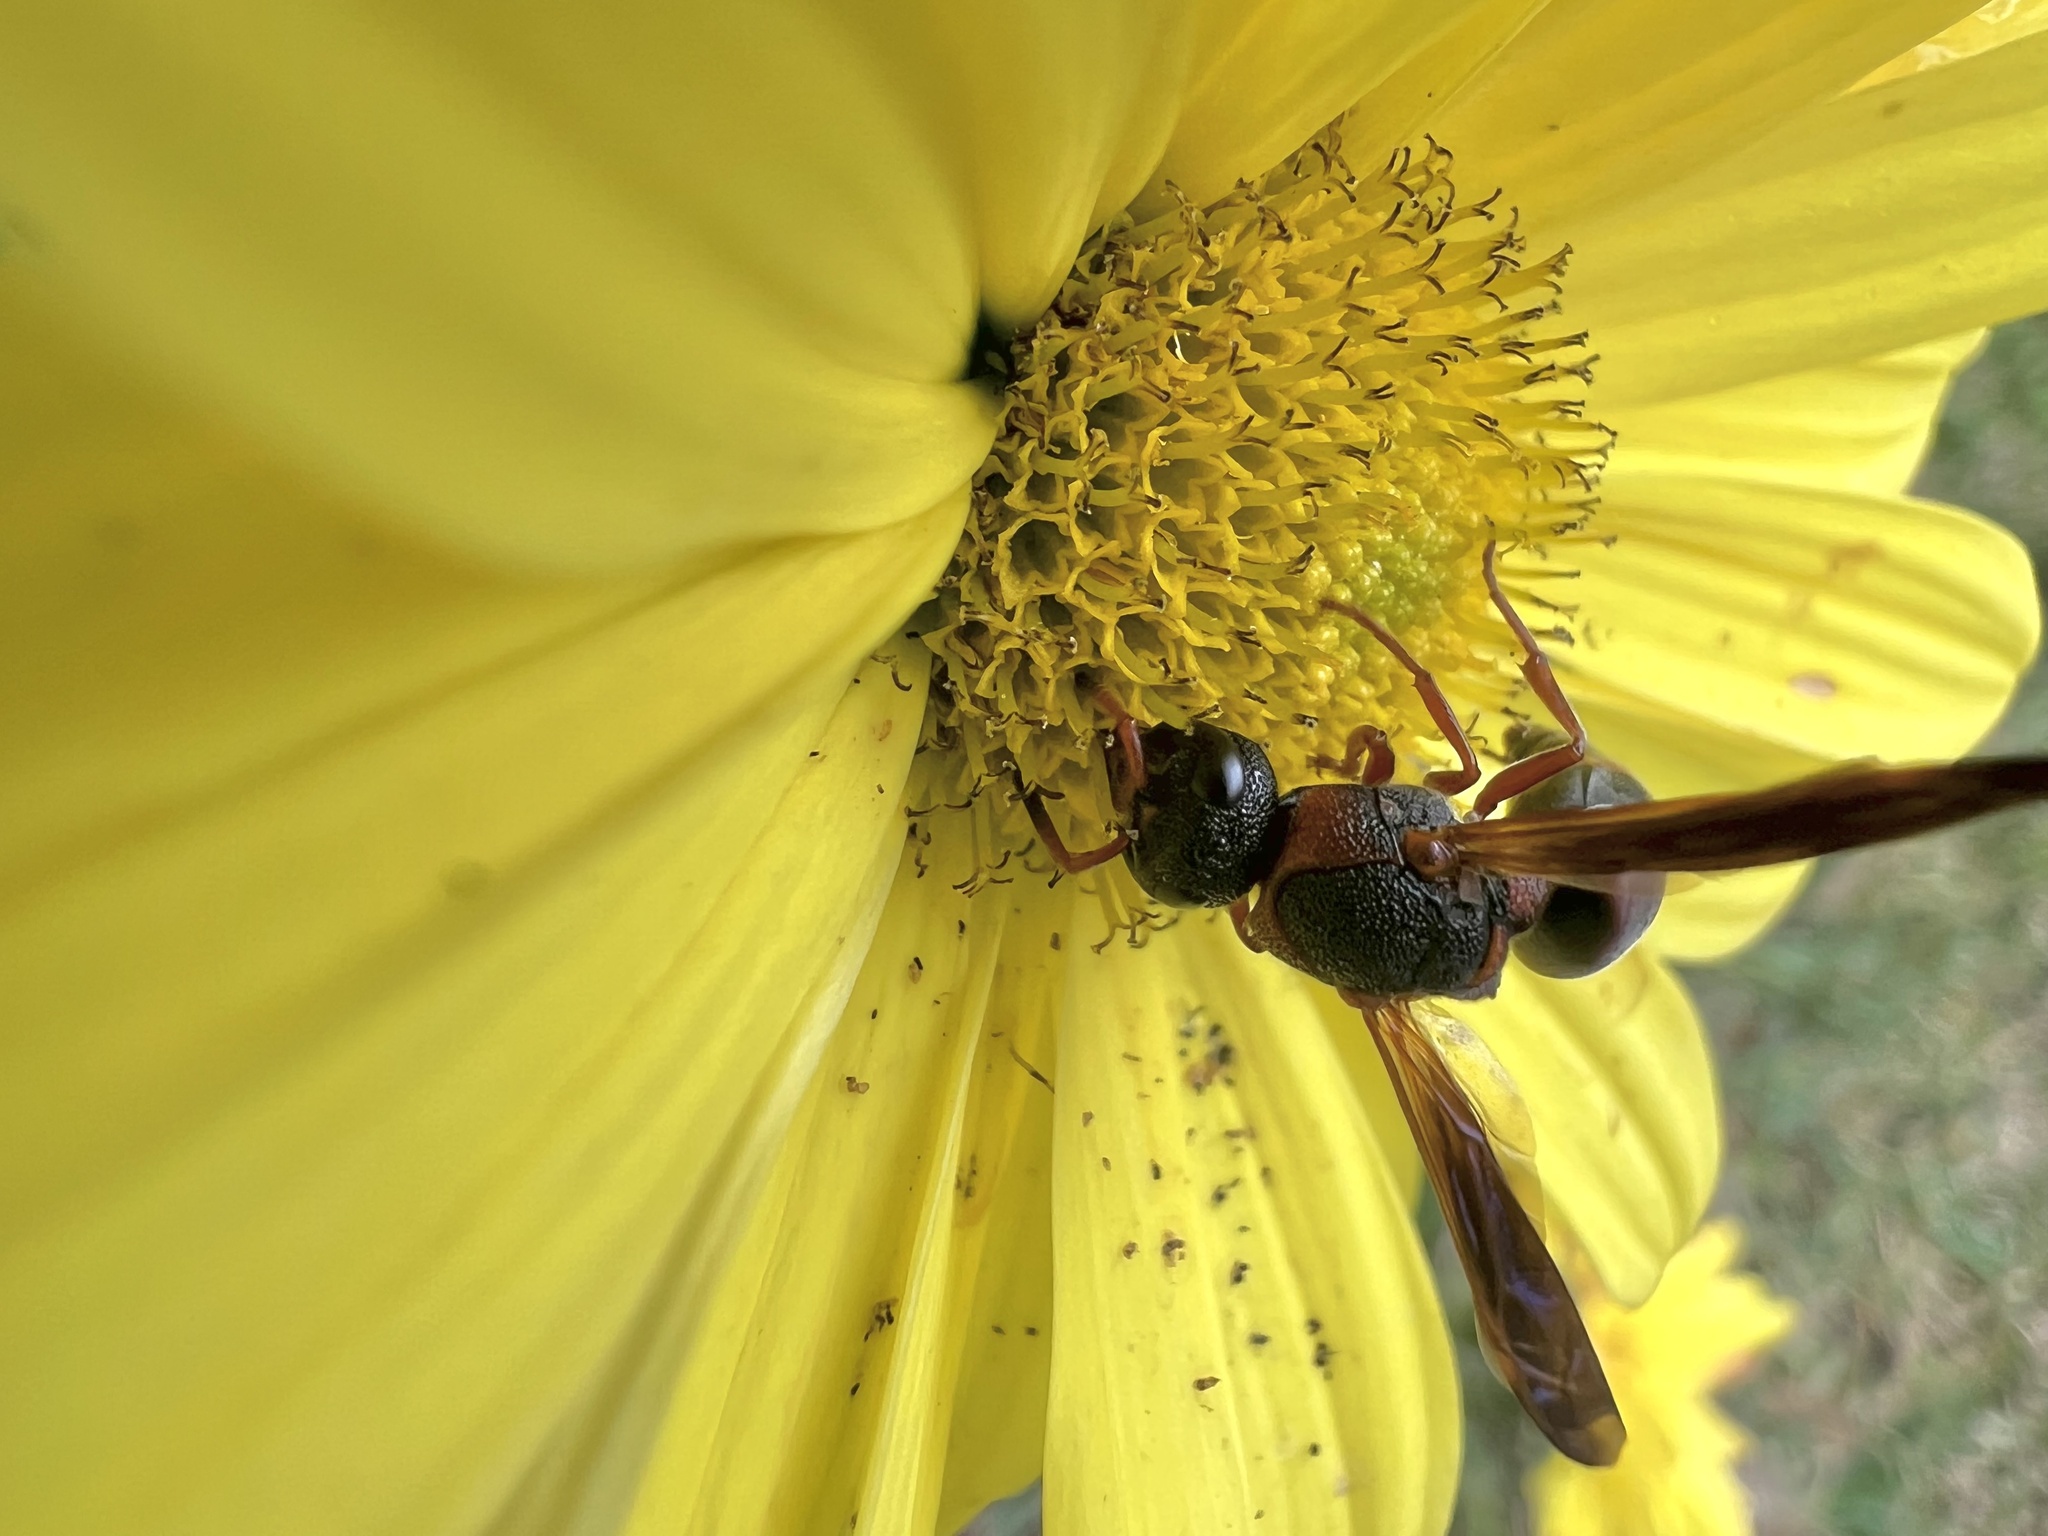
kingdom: Animalia
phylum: Arthropoda
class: Insecta
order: Hymenoptera
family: Eumenidae
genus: Pachodynerus
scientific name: Pachodynerus erynnis
